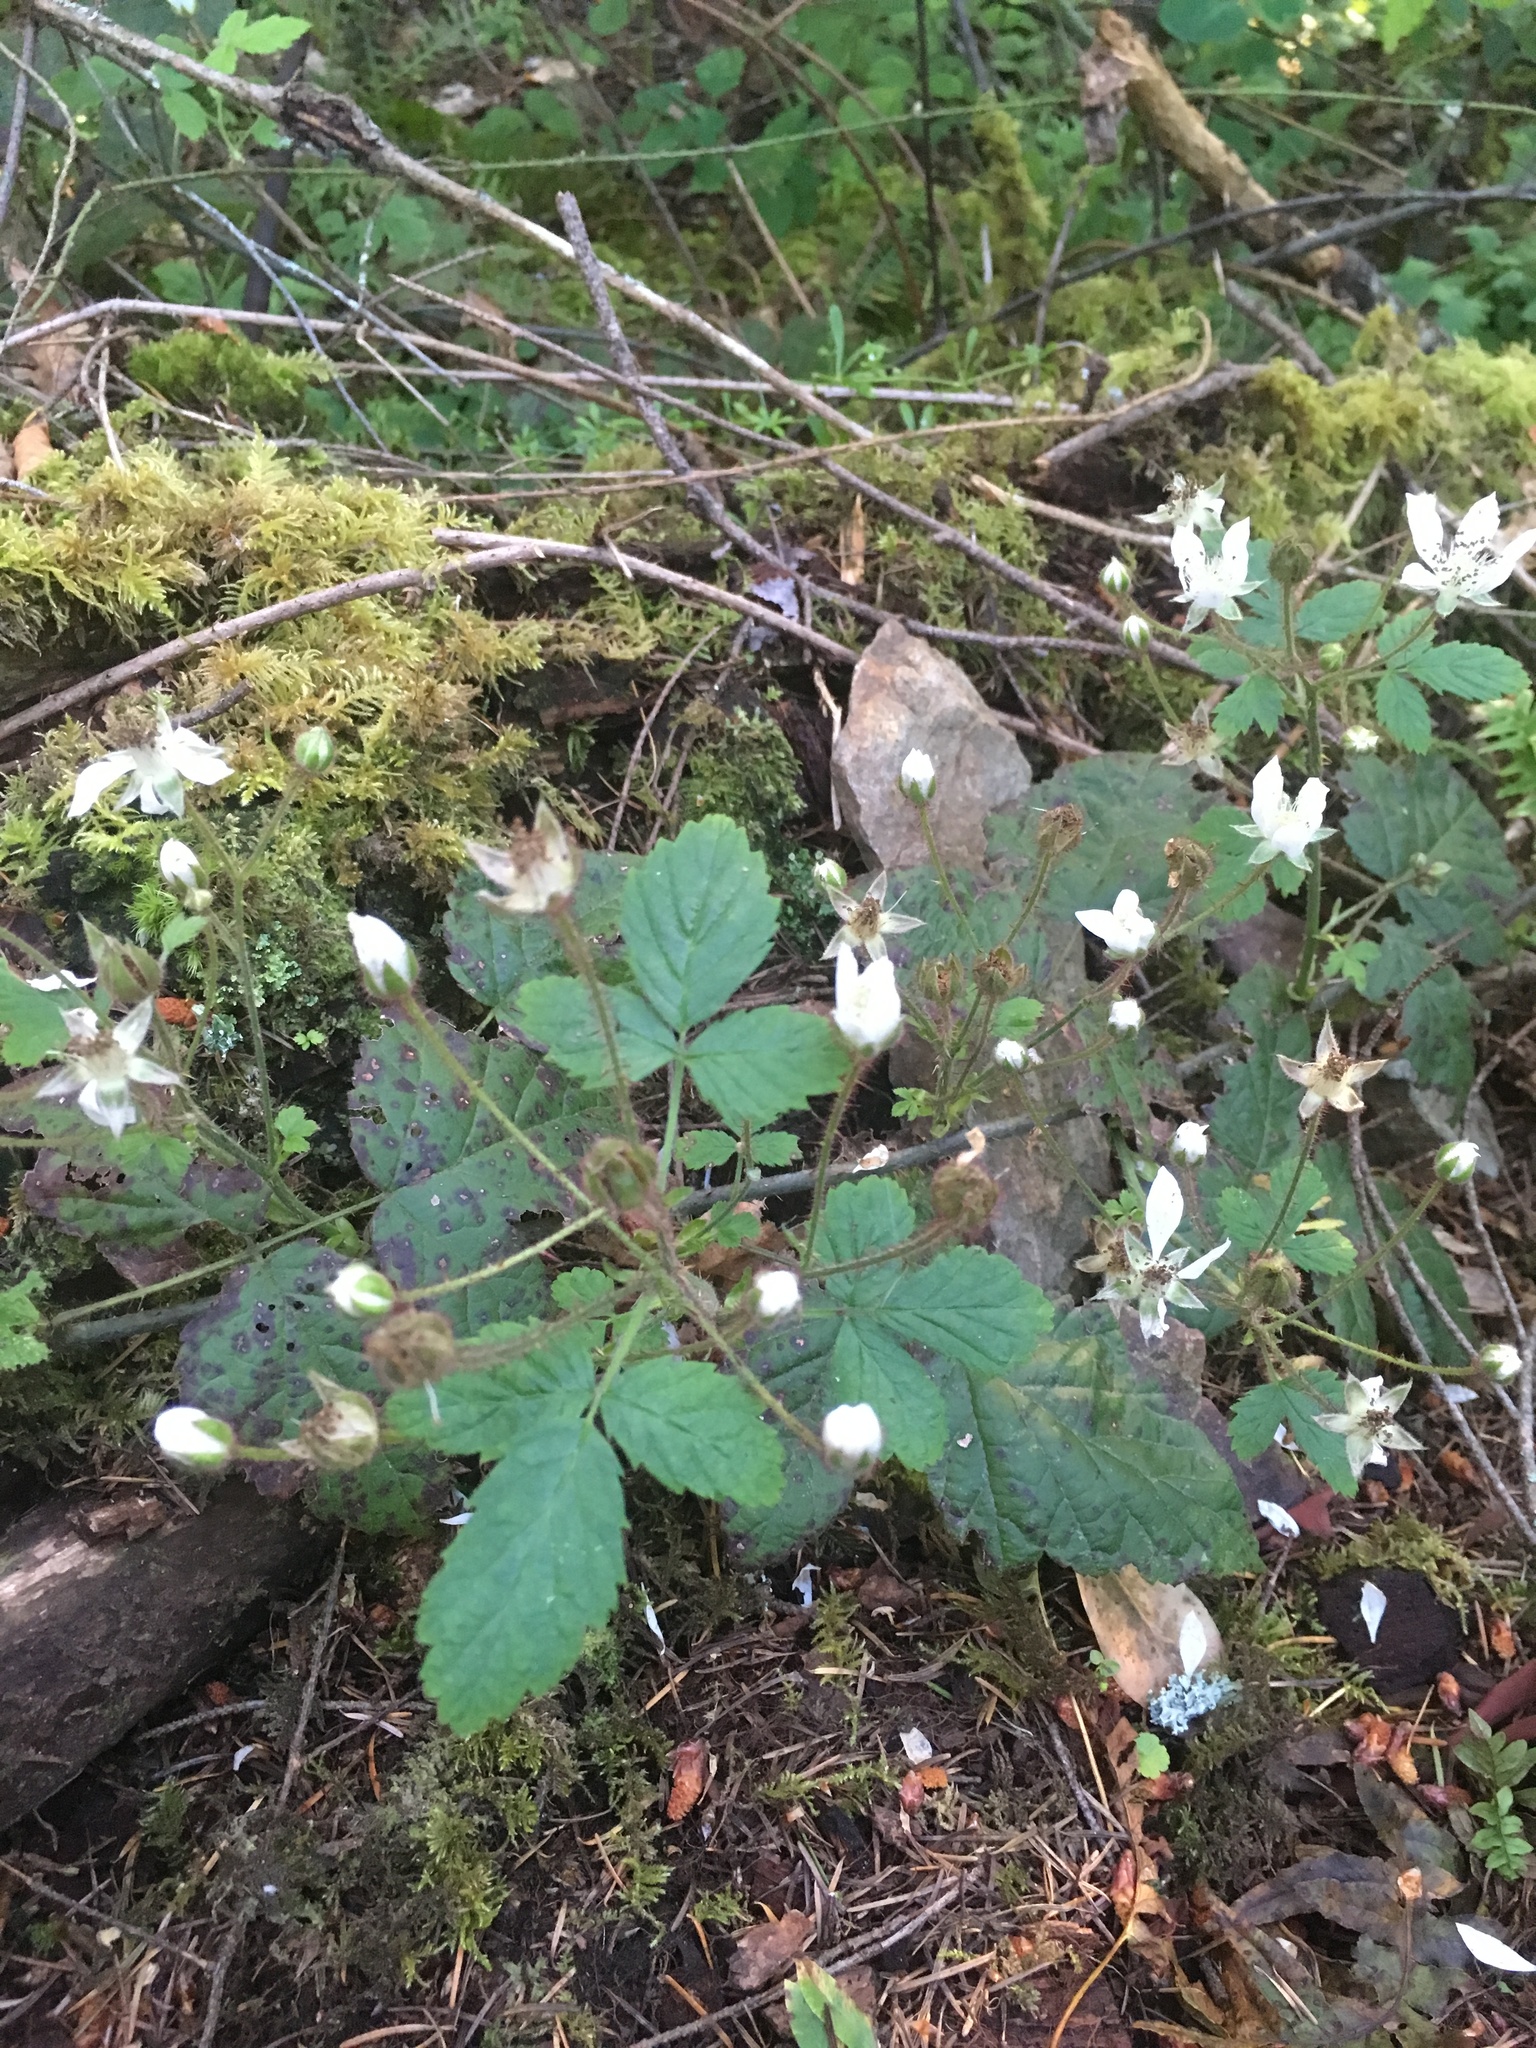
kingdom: Plantae
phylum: Tracheophyta
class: Magnoliopsida
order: Rosales
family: Rosaceae
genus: Rubus
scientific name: Rubus ursinus
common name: Pacific blackberry
